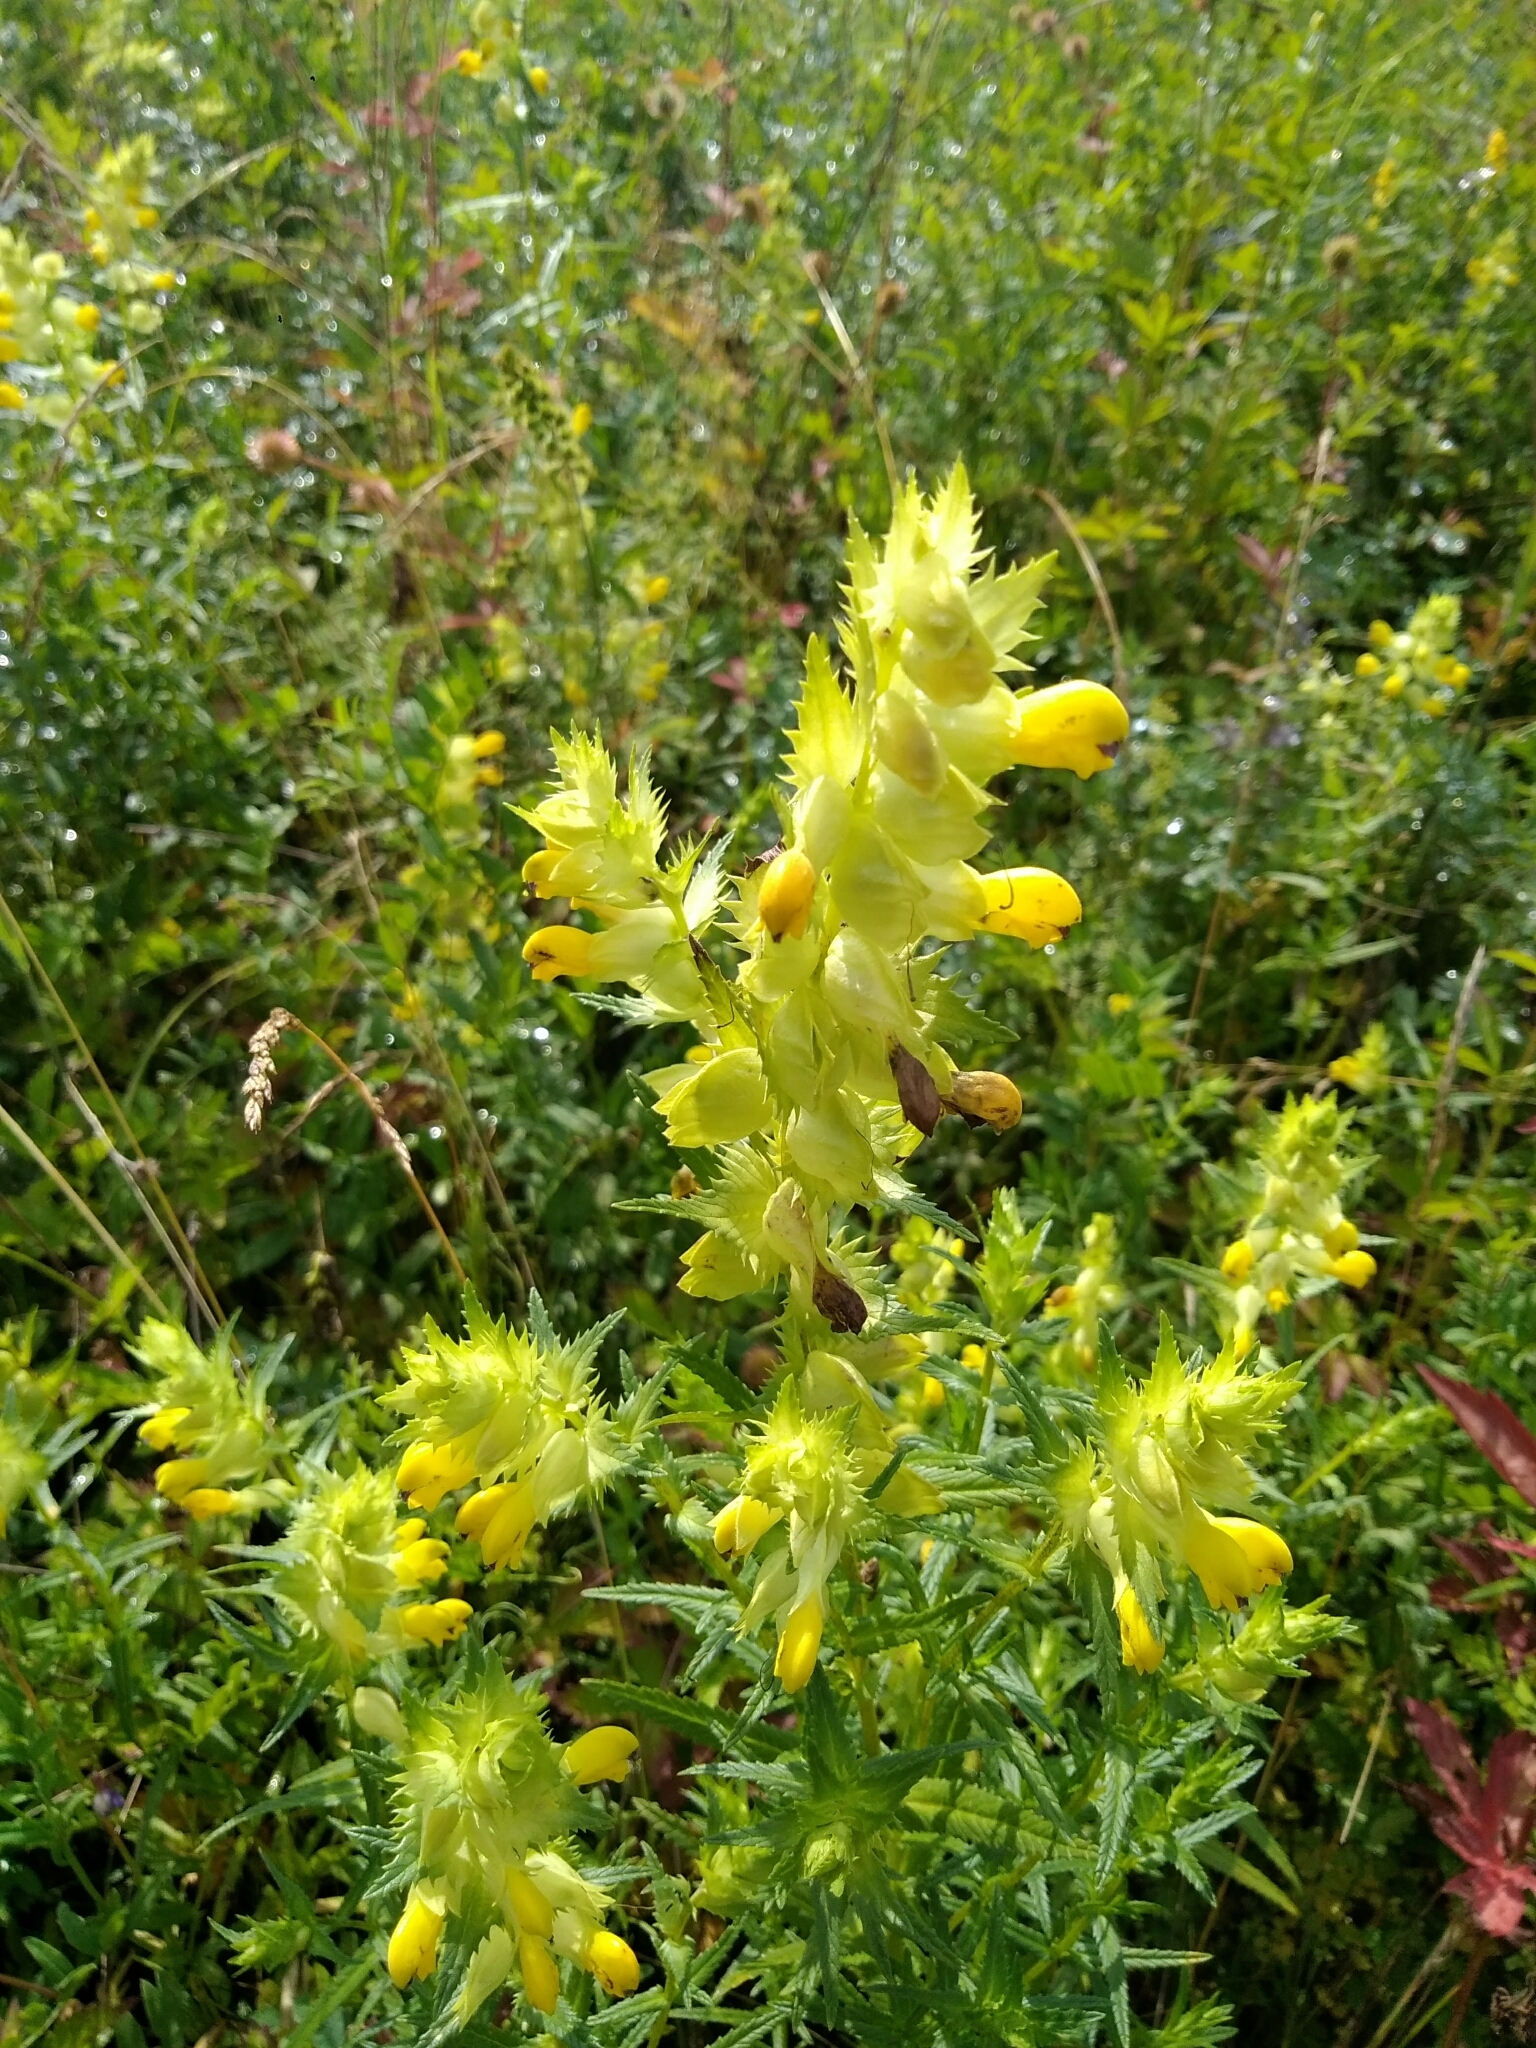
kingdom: Plantae
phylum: Tracheophyta
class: Magnoliopsida
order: Lamiales
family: Orobanchaceae
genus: Rhinanthus
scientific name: Rhinanthus serotinus
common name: Late-flowering yellow rattle
